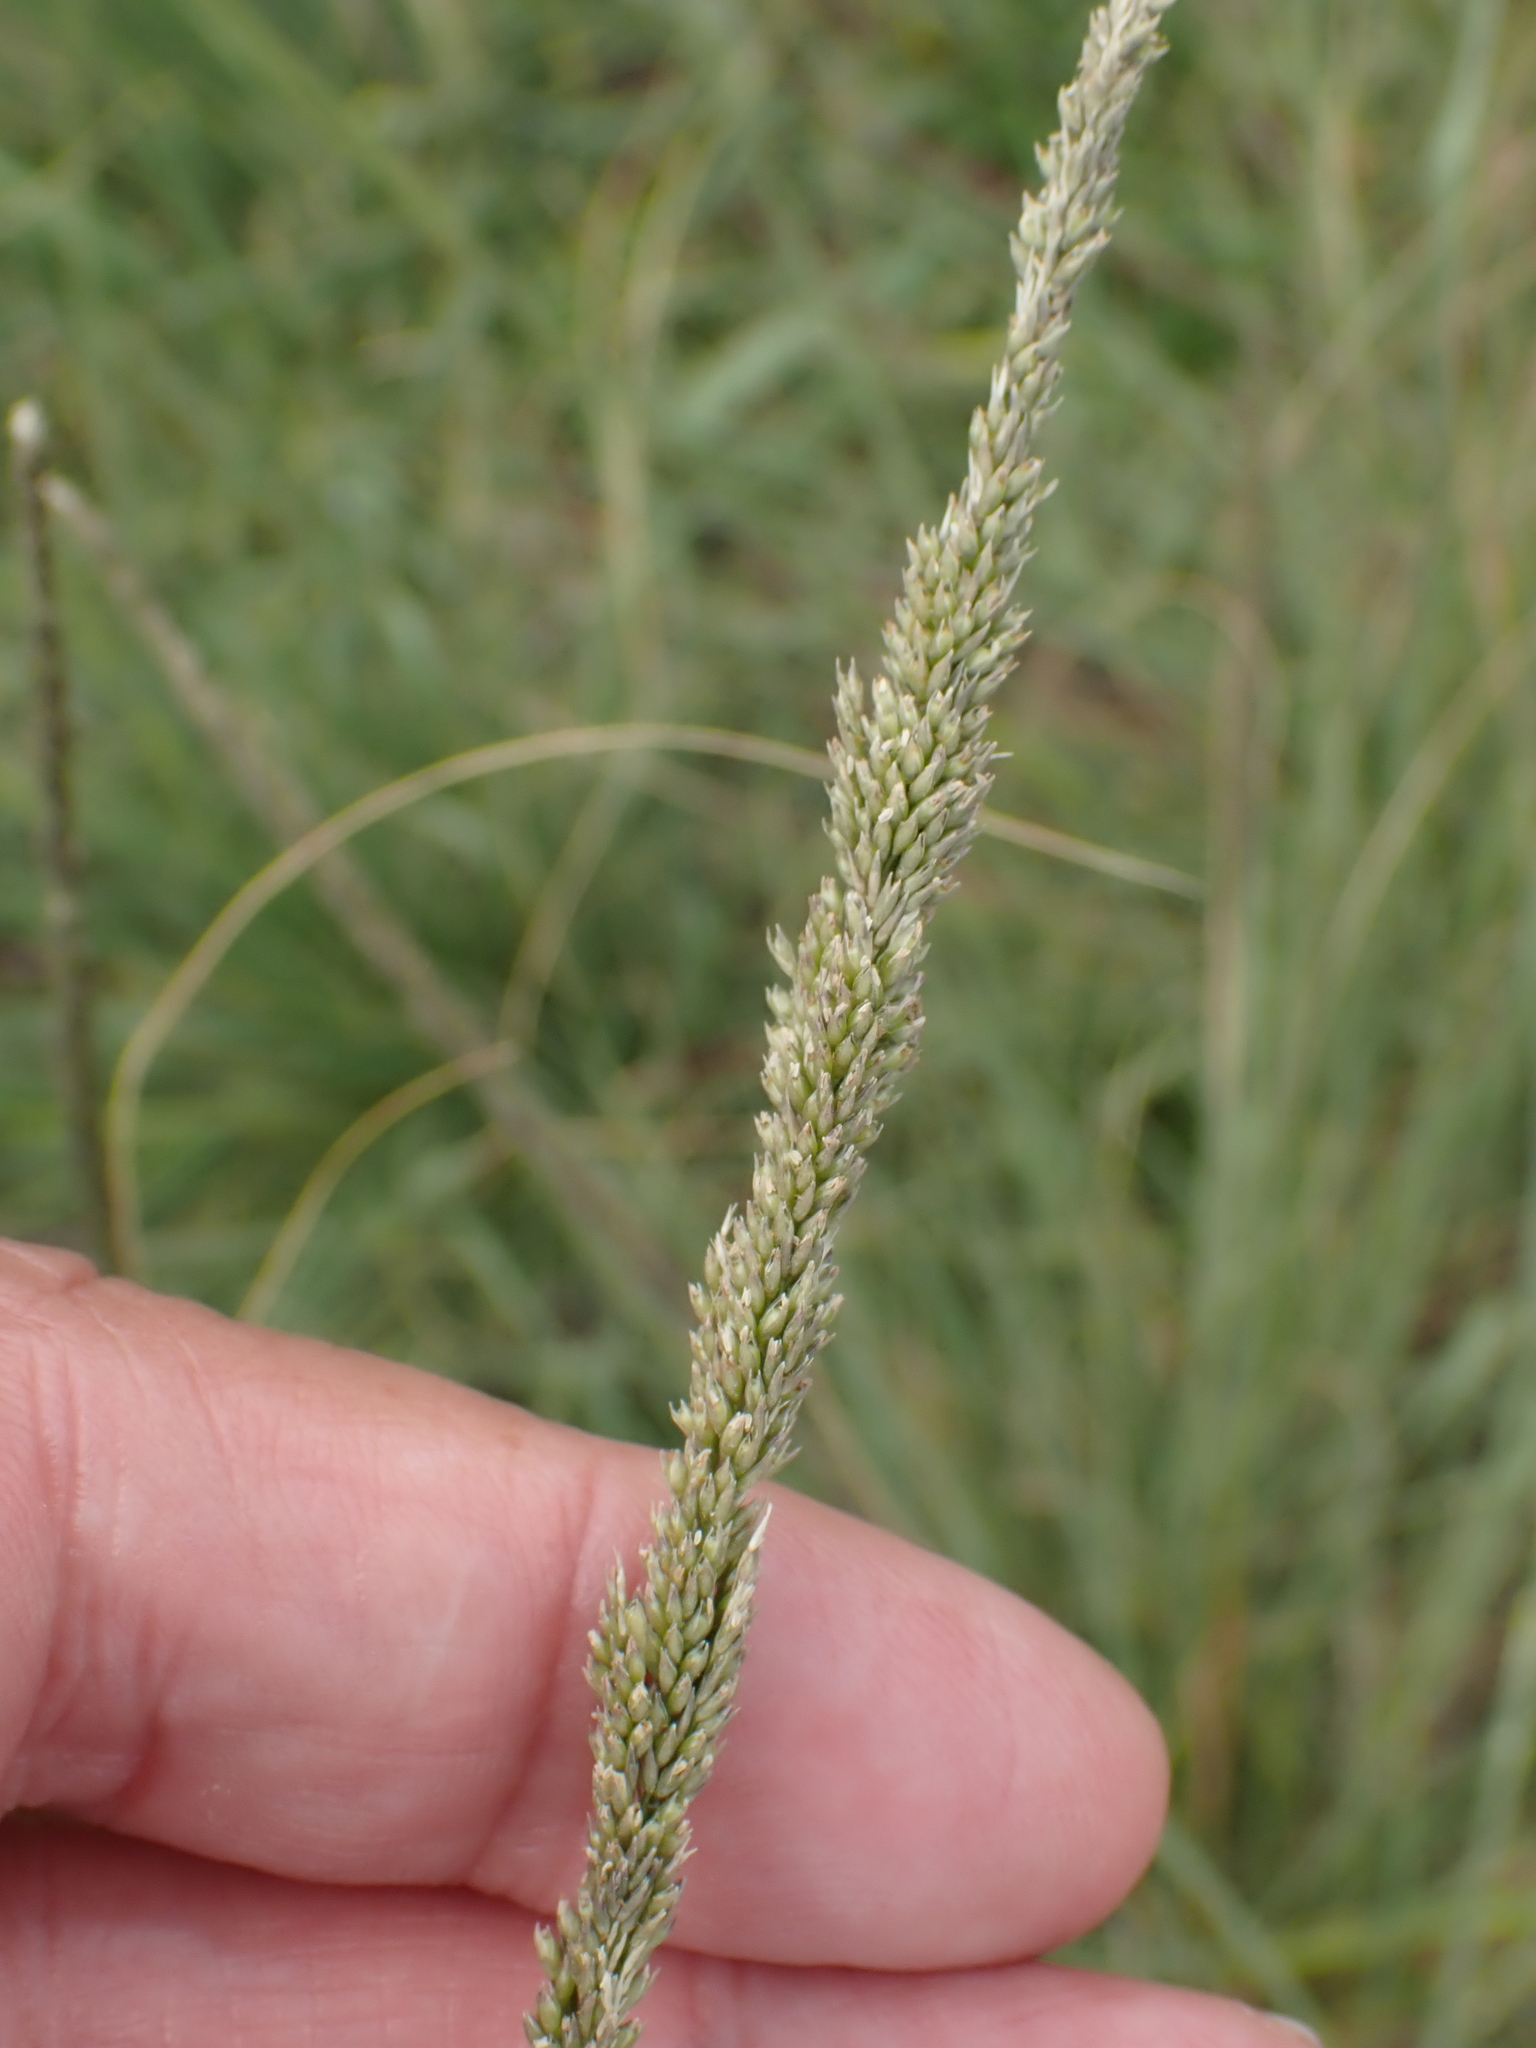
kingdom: Plantae
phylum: Tracheophyta
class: Liliopsida
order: Poales
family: Poaceae
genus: Sporobolus
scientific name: Sporobolus indicus
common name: Smut grass
